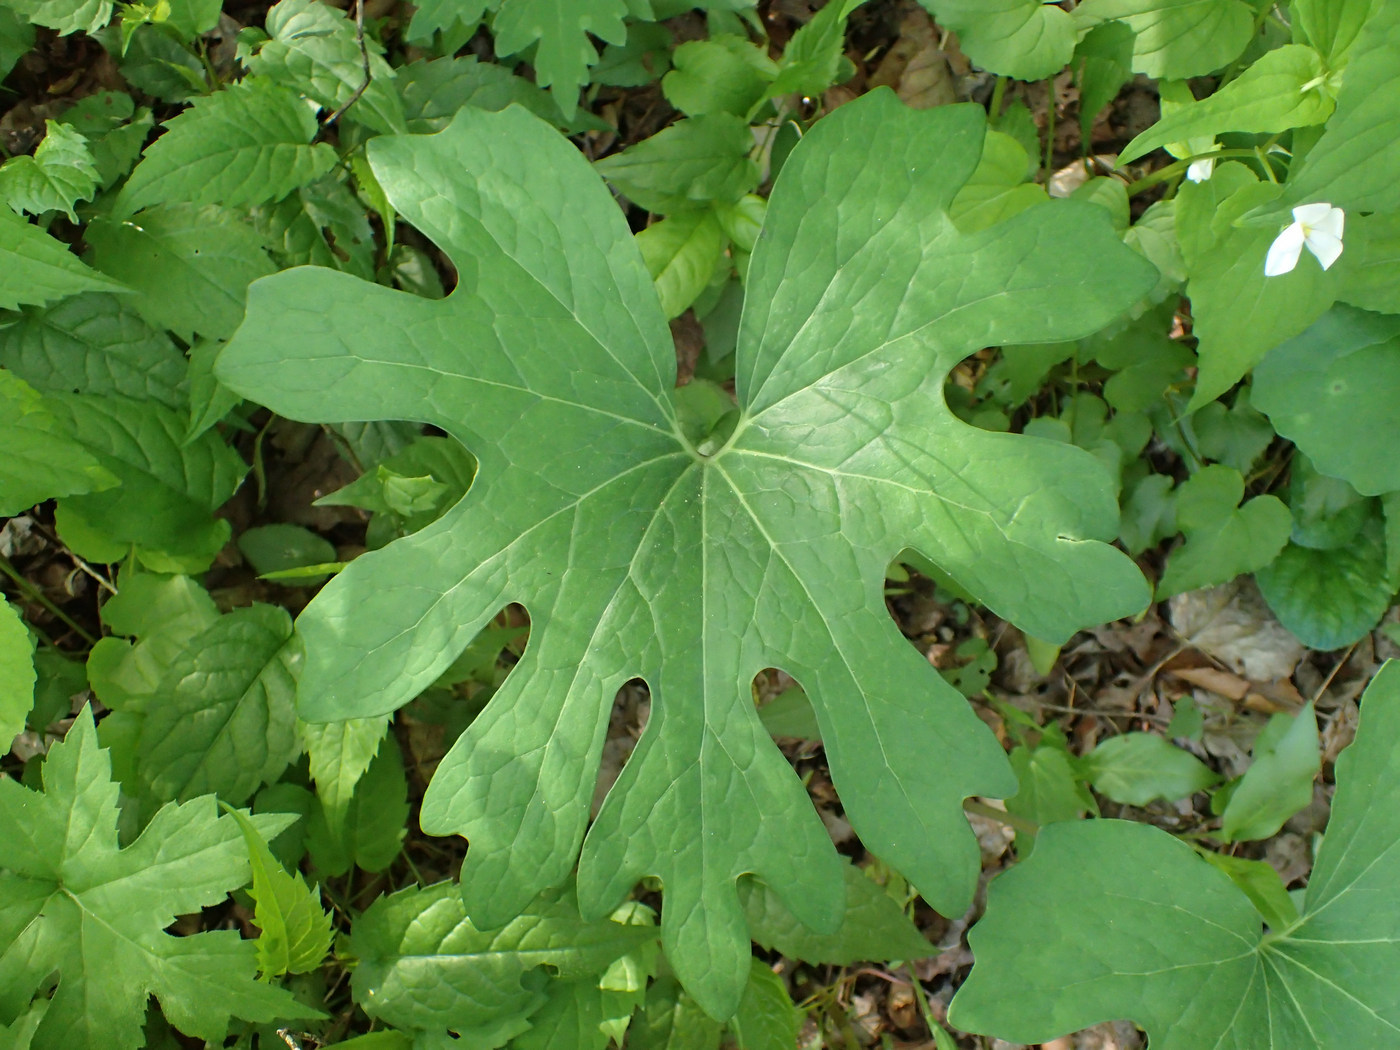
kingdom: Plantae
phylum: Tracheophyta
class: Magnoliopsida
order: Ranunculales
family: Papaveraceae
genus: Sanguinaria
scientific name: Sanguinaria canadensis
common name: Bloodroot
